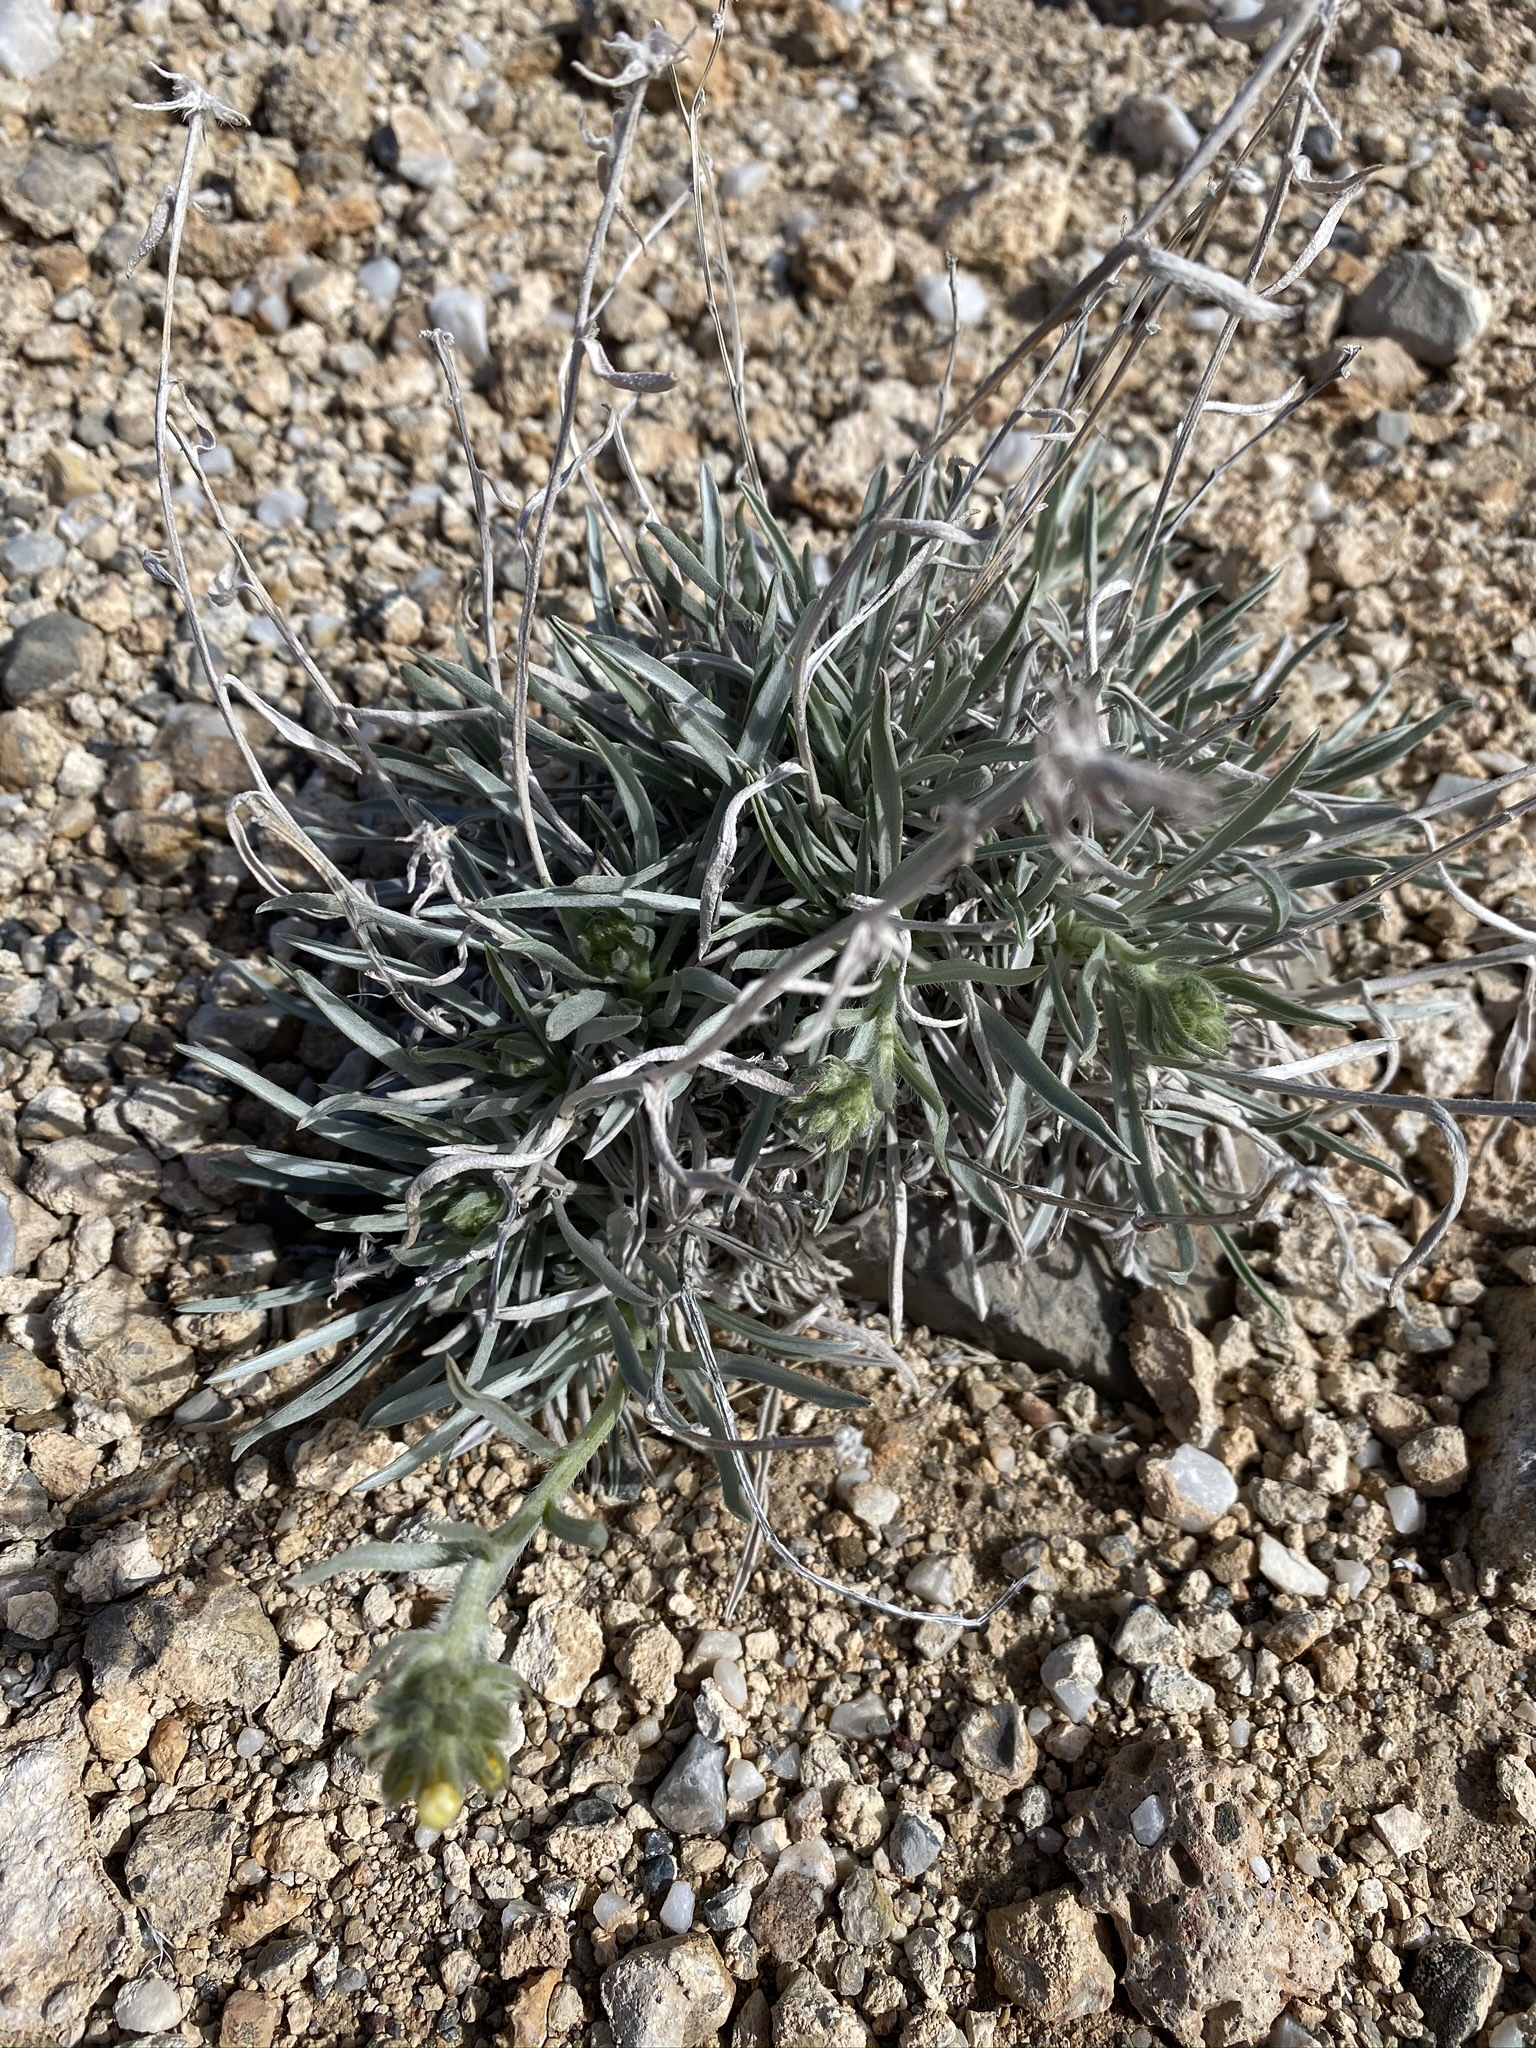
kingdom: Plantae
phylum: Tracheophyta
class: Magnoliopsida
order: Boraginales
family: Boraginaceae
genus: Oreocarya
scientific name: Oreocarya confertiflora
